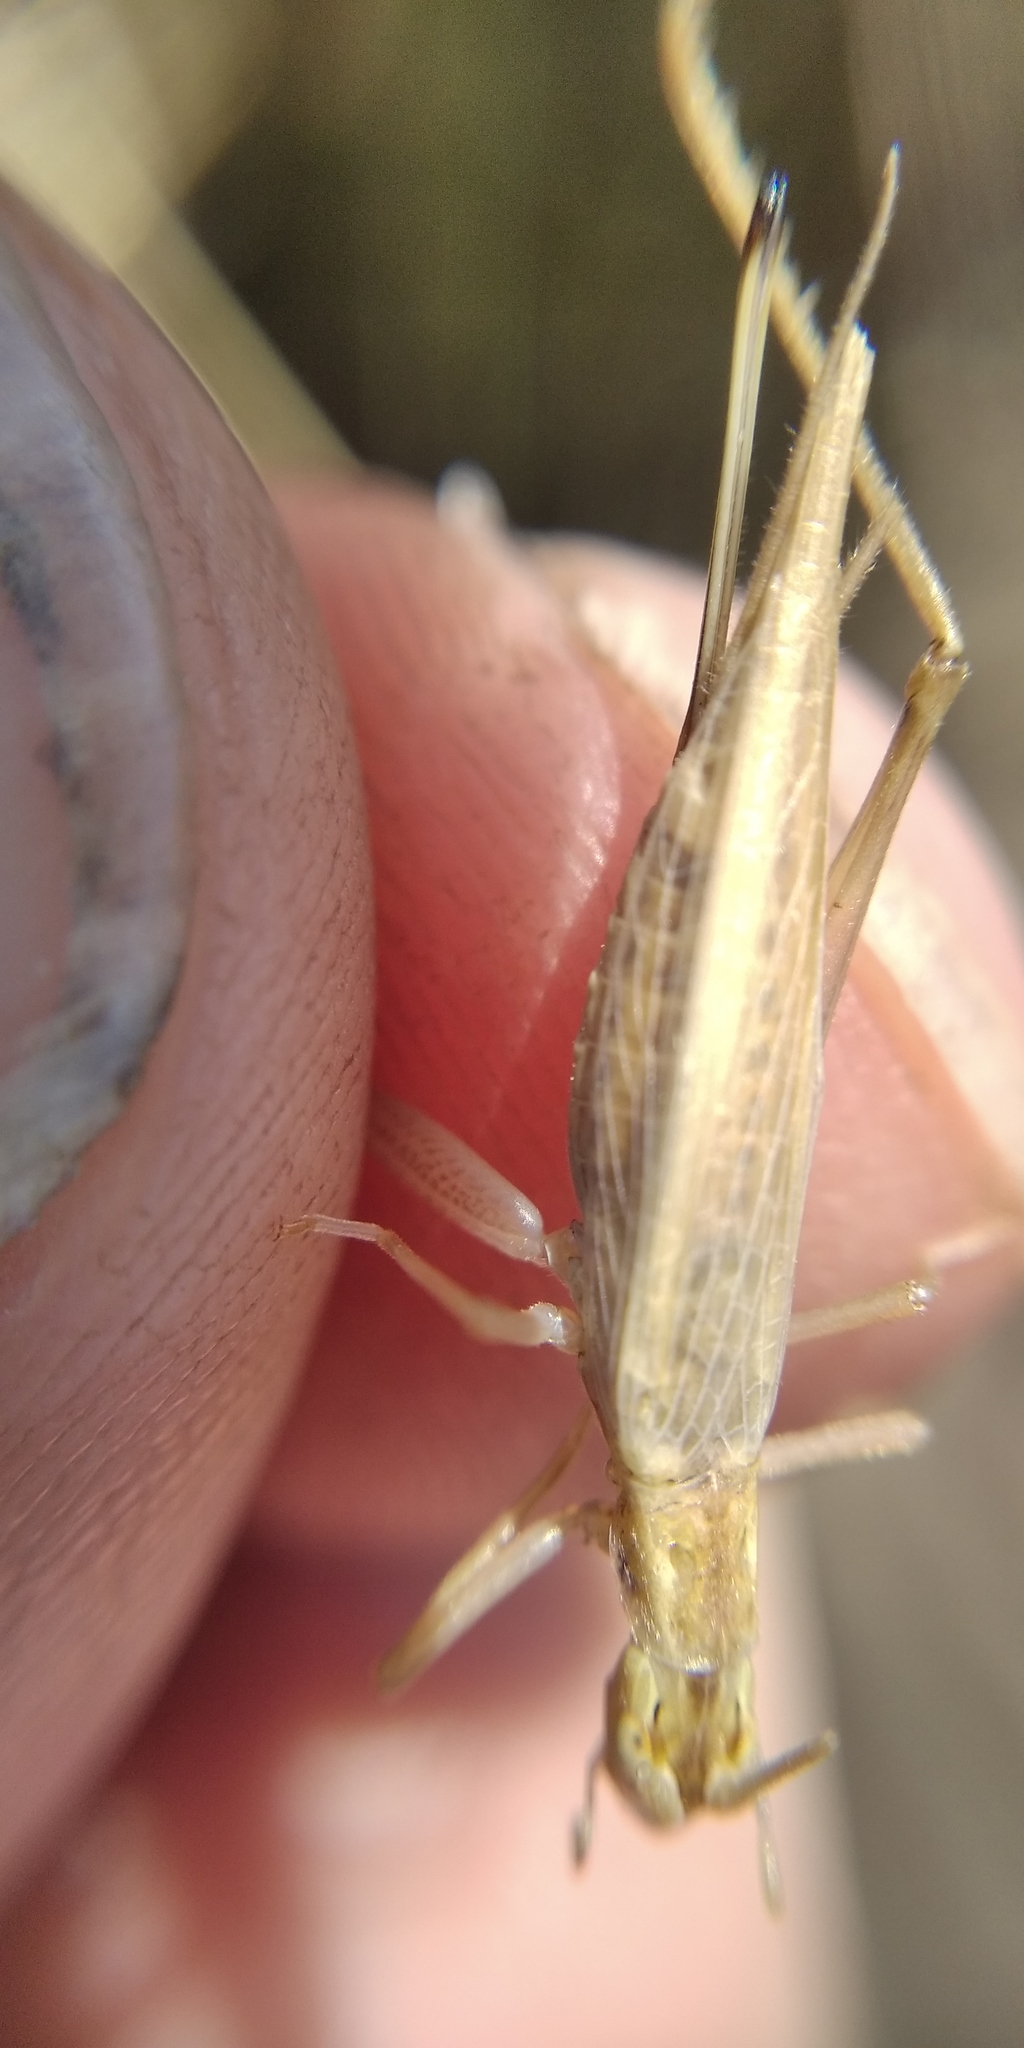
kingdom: Animalia
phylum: Arthropoda
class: Insecta
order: Orthoptera
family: Gryllidae
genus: Oecanthus
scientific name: Oecanthus pellucens
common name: Tree-cricket
